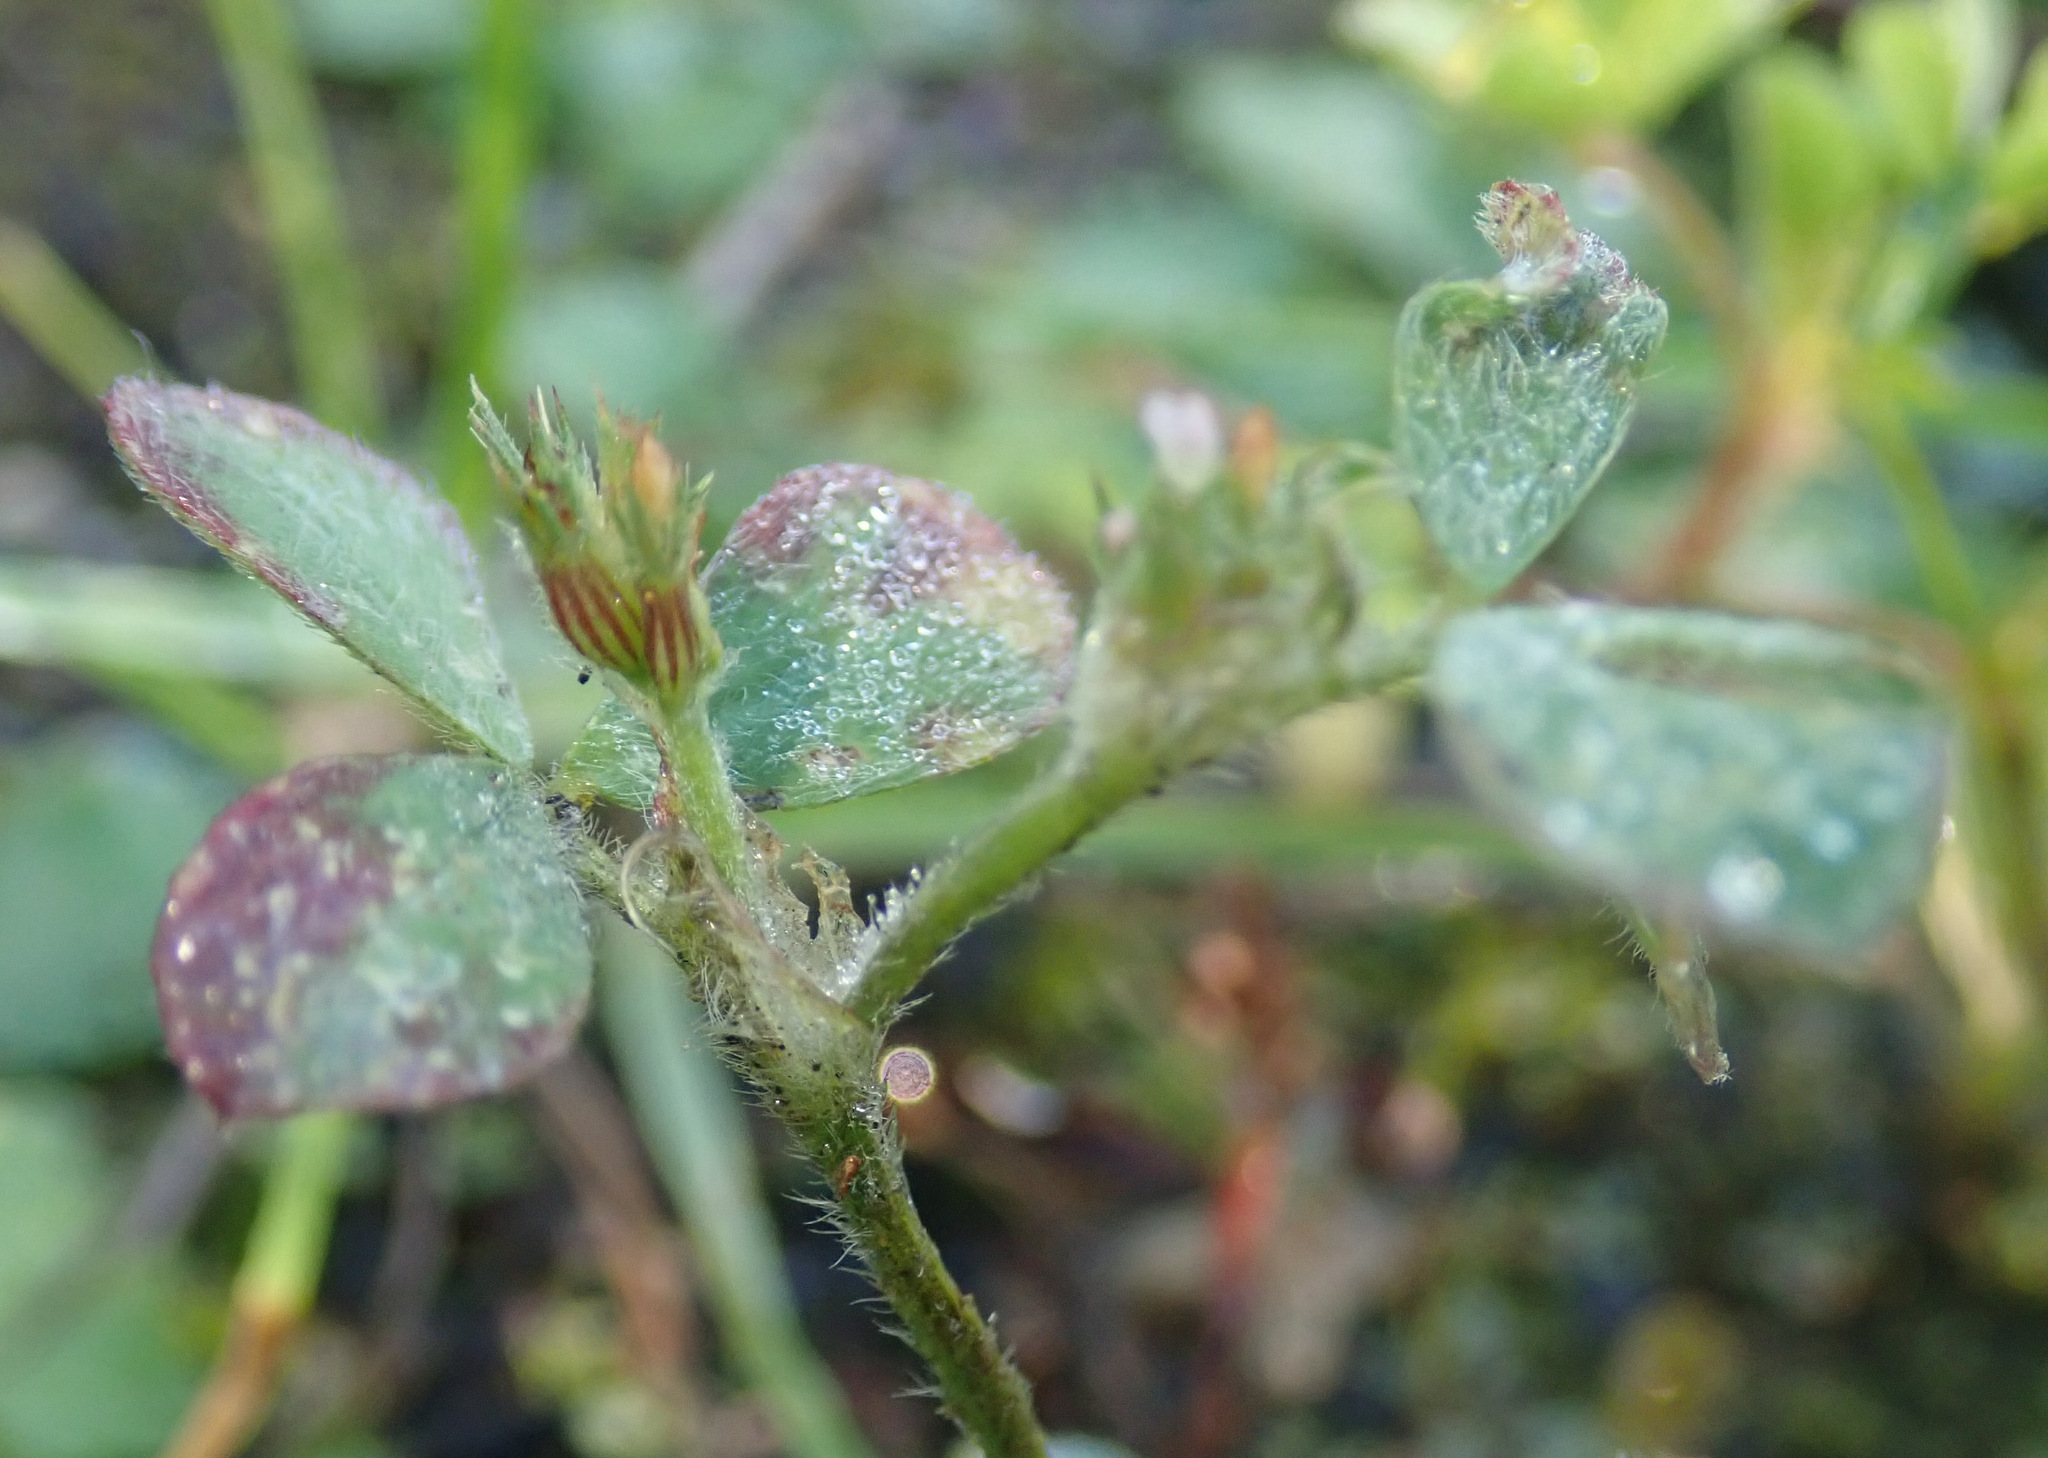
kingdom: Plantae
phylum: Tracheophyta
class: Magnoliopsida
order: Fabales
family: Fabaceae
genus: Trifolium
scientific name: Trifolium striatum
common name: Knotted clover
